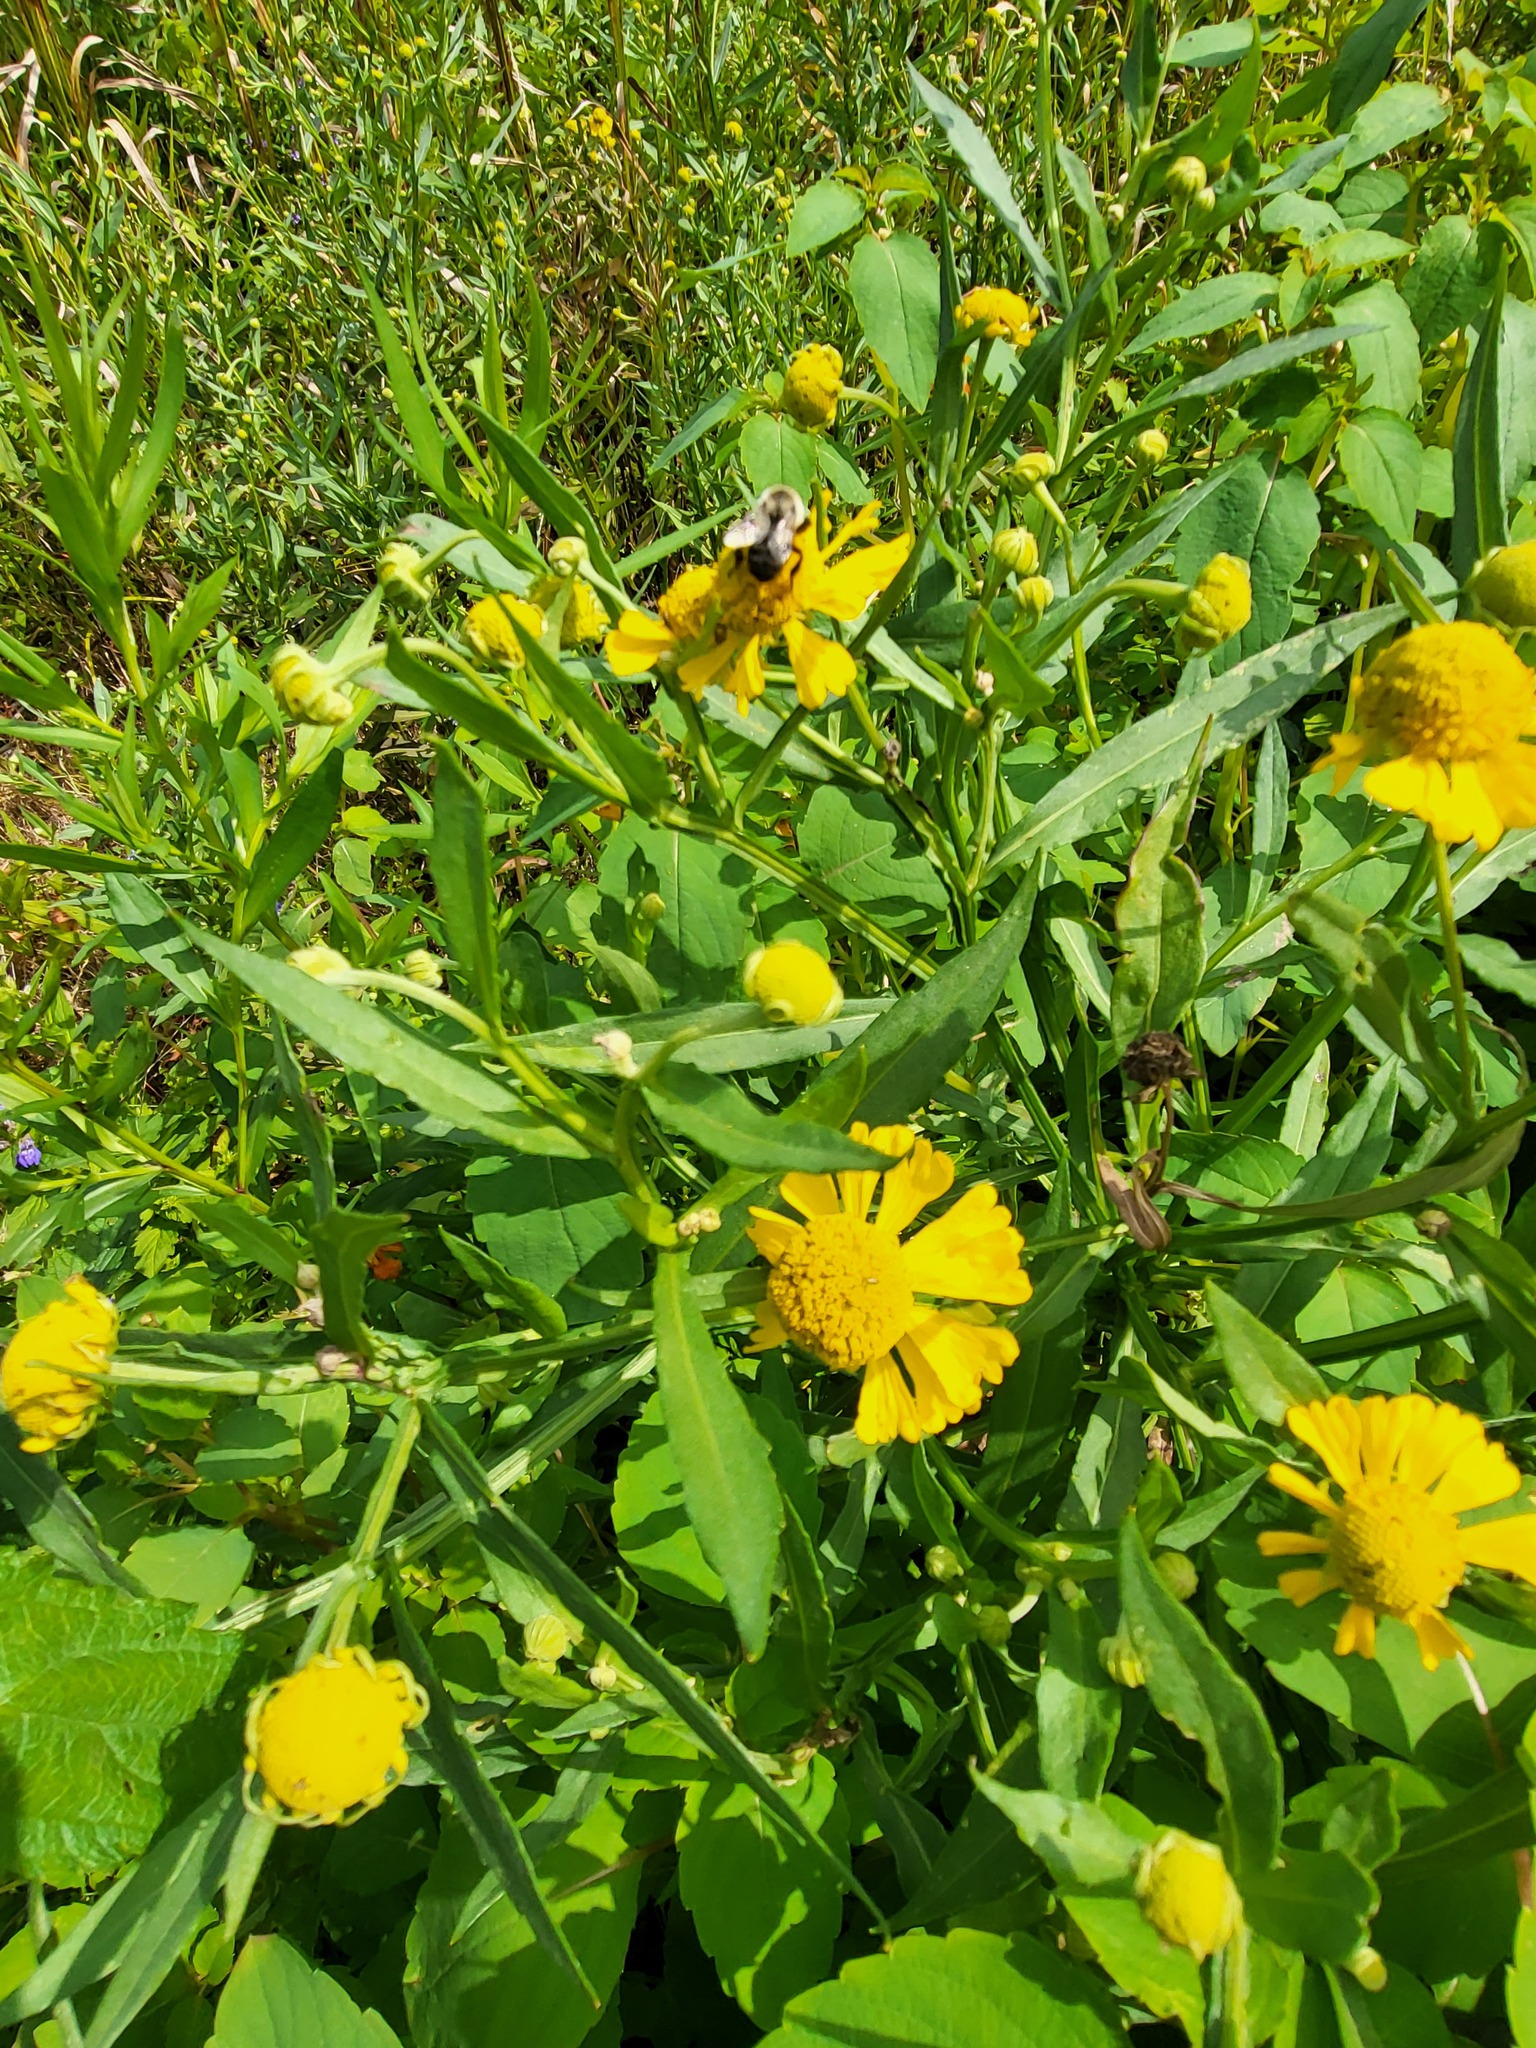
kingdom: Plantae
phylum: Tracheophyta
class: Magnoliopsida
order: Asterales
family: Asteraceae
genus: Helenium
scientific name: Helenium autumnale
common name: Sneezeweed
